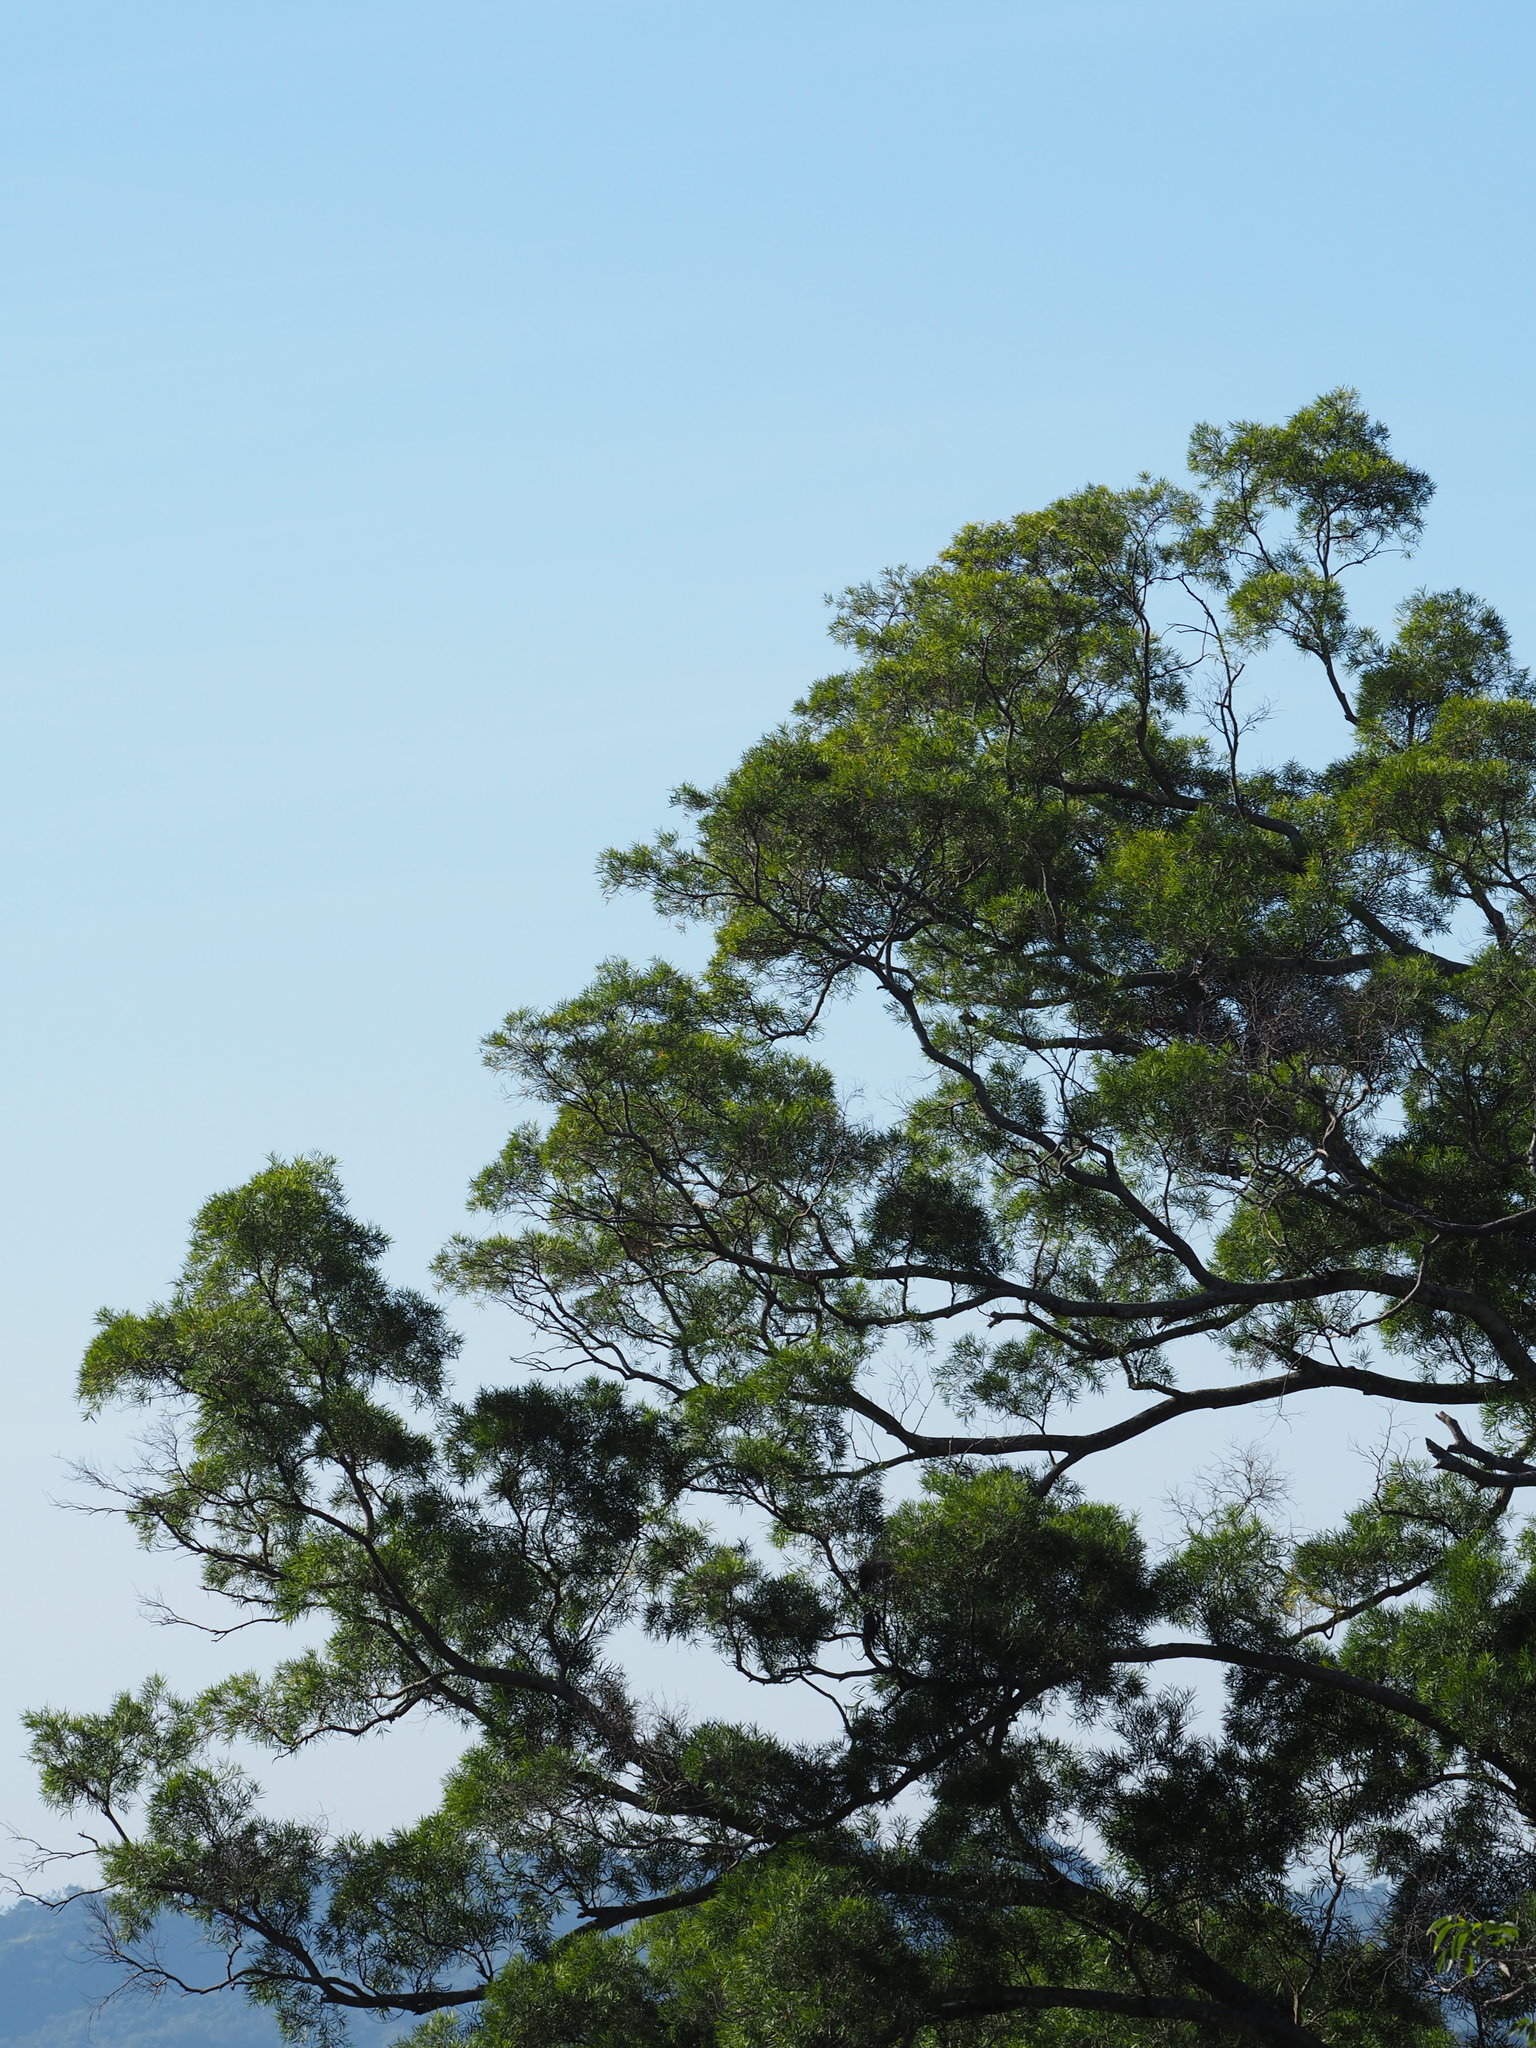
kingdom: Plantae
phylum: Tracheophyta
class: Magnoliopsida
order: Fabales
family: Fabaceae
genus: Acacia
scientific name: Acacia confusa
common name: Formosan koa
